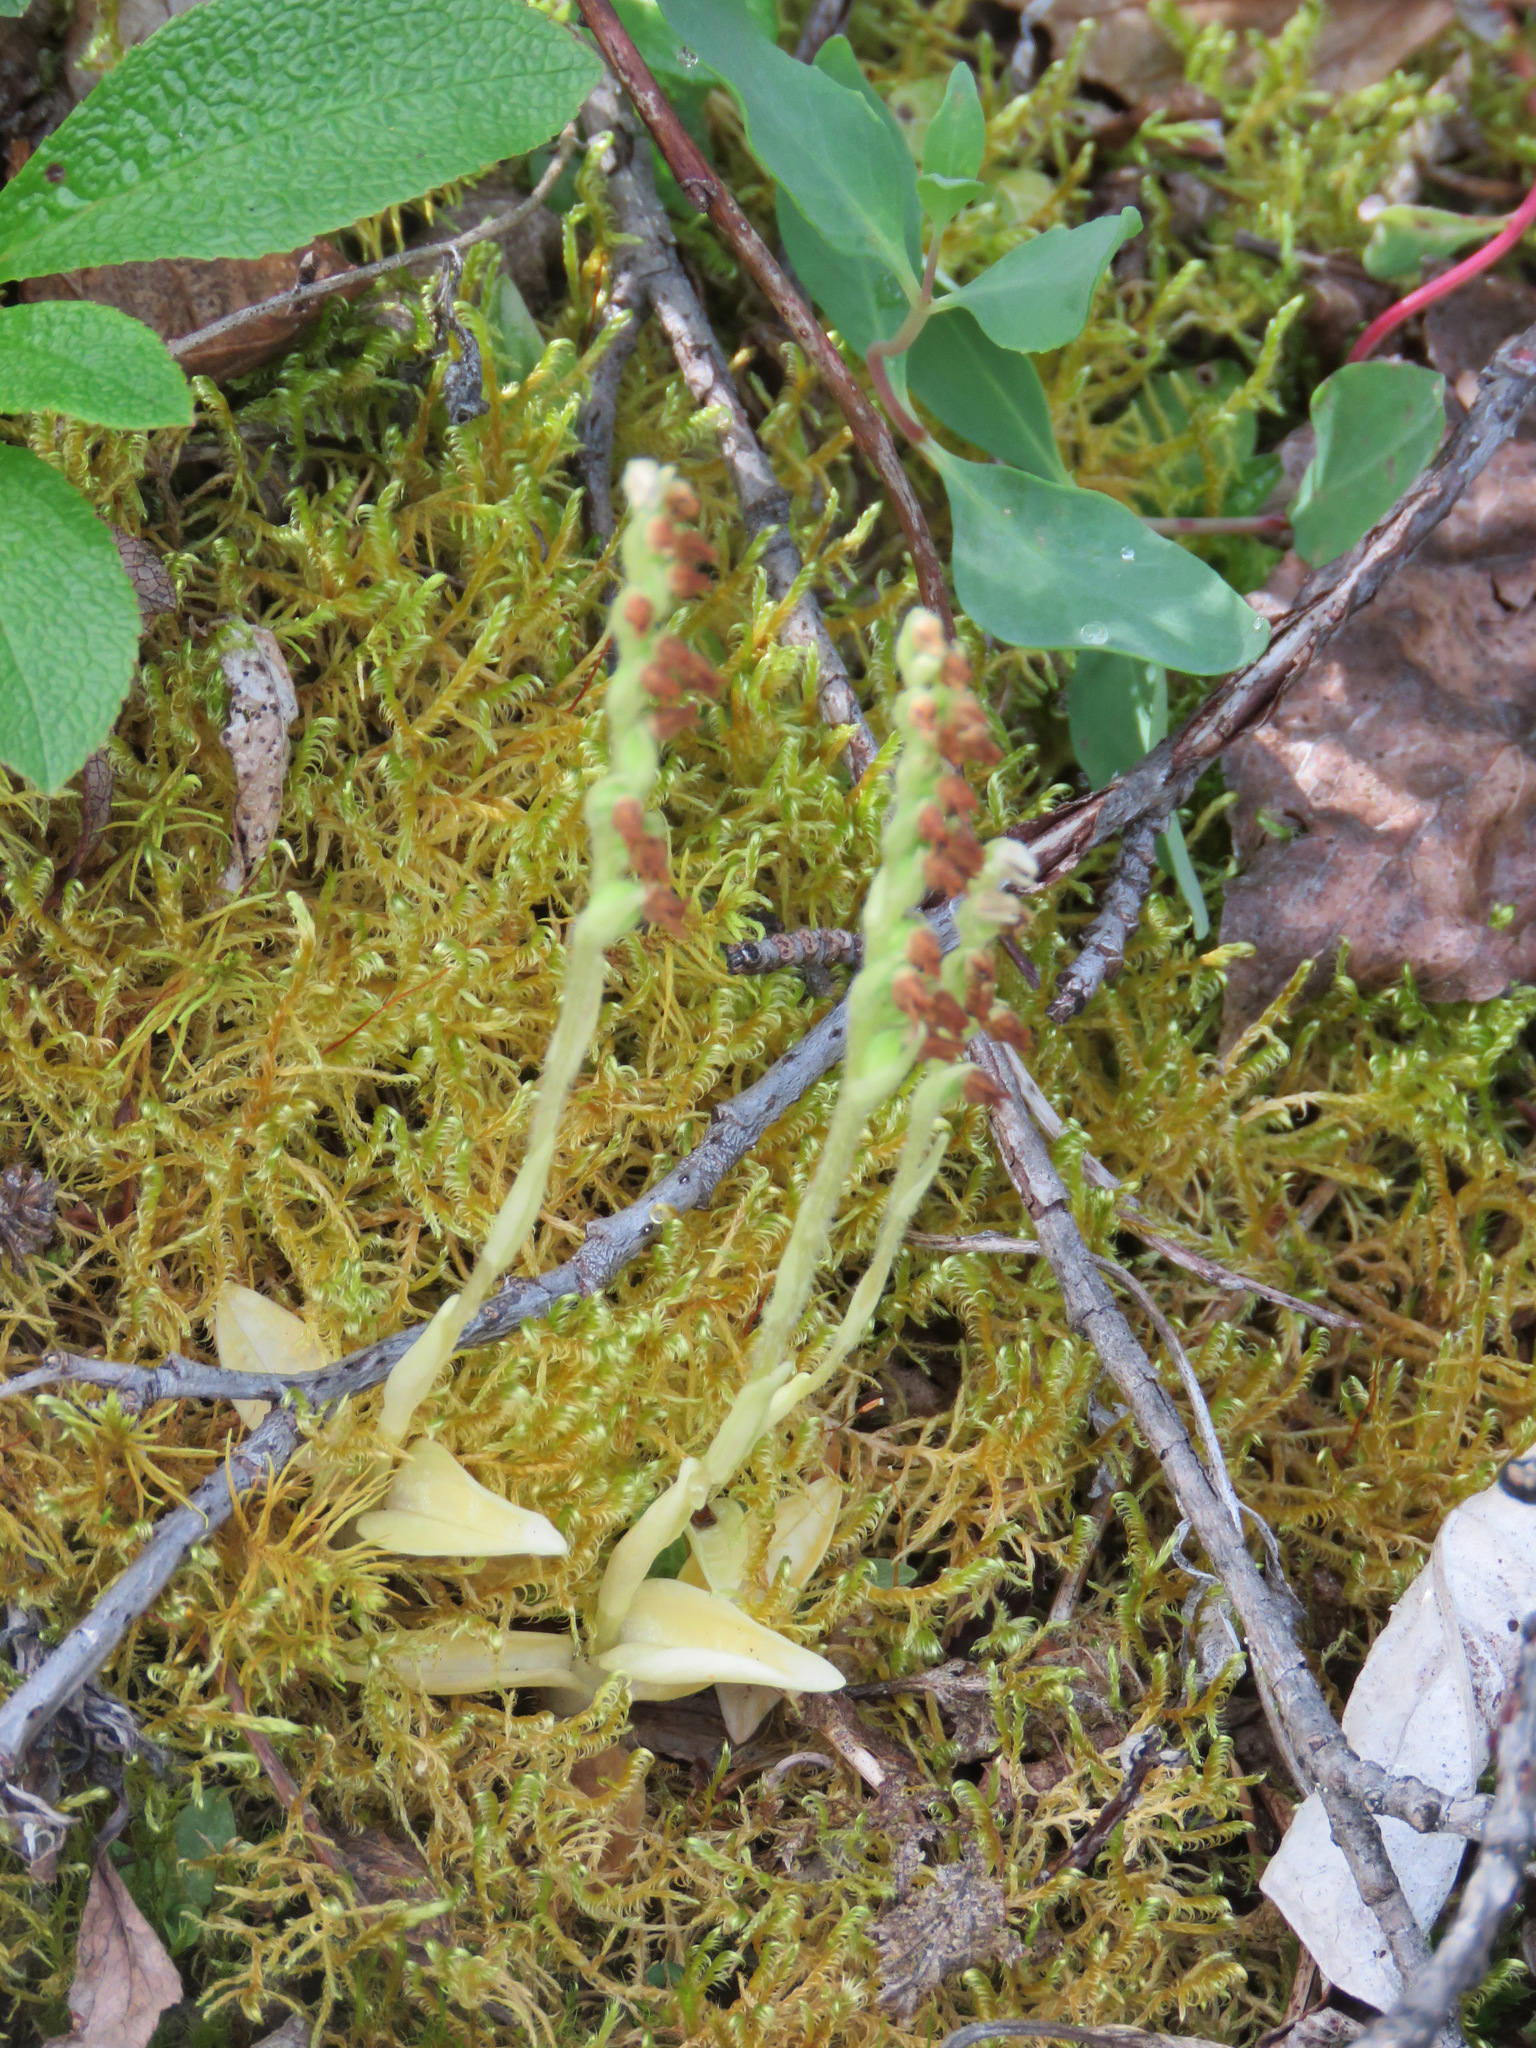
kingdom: Plantae
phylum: Tracheophyta
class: Liliopsida
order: Asparagales
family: Orchidaceae
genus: Goodyera
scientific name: Goodyera repens
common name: Creeping lady's-tresses
